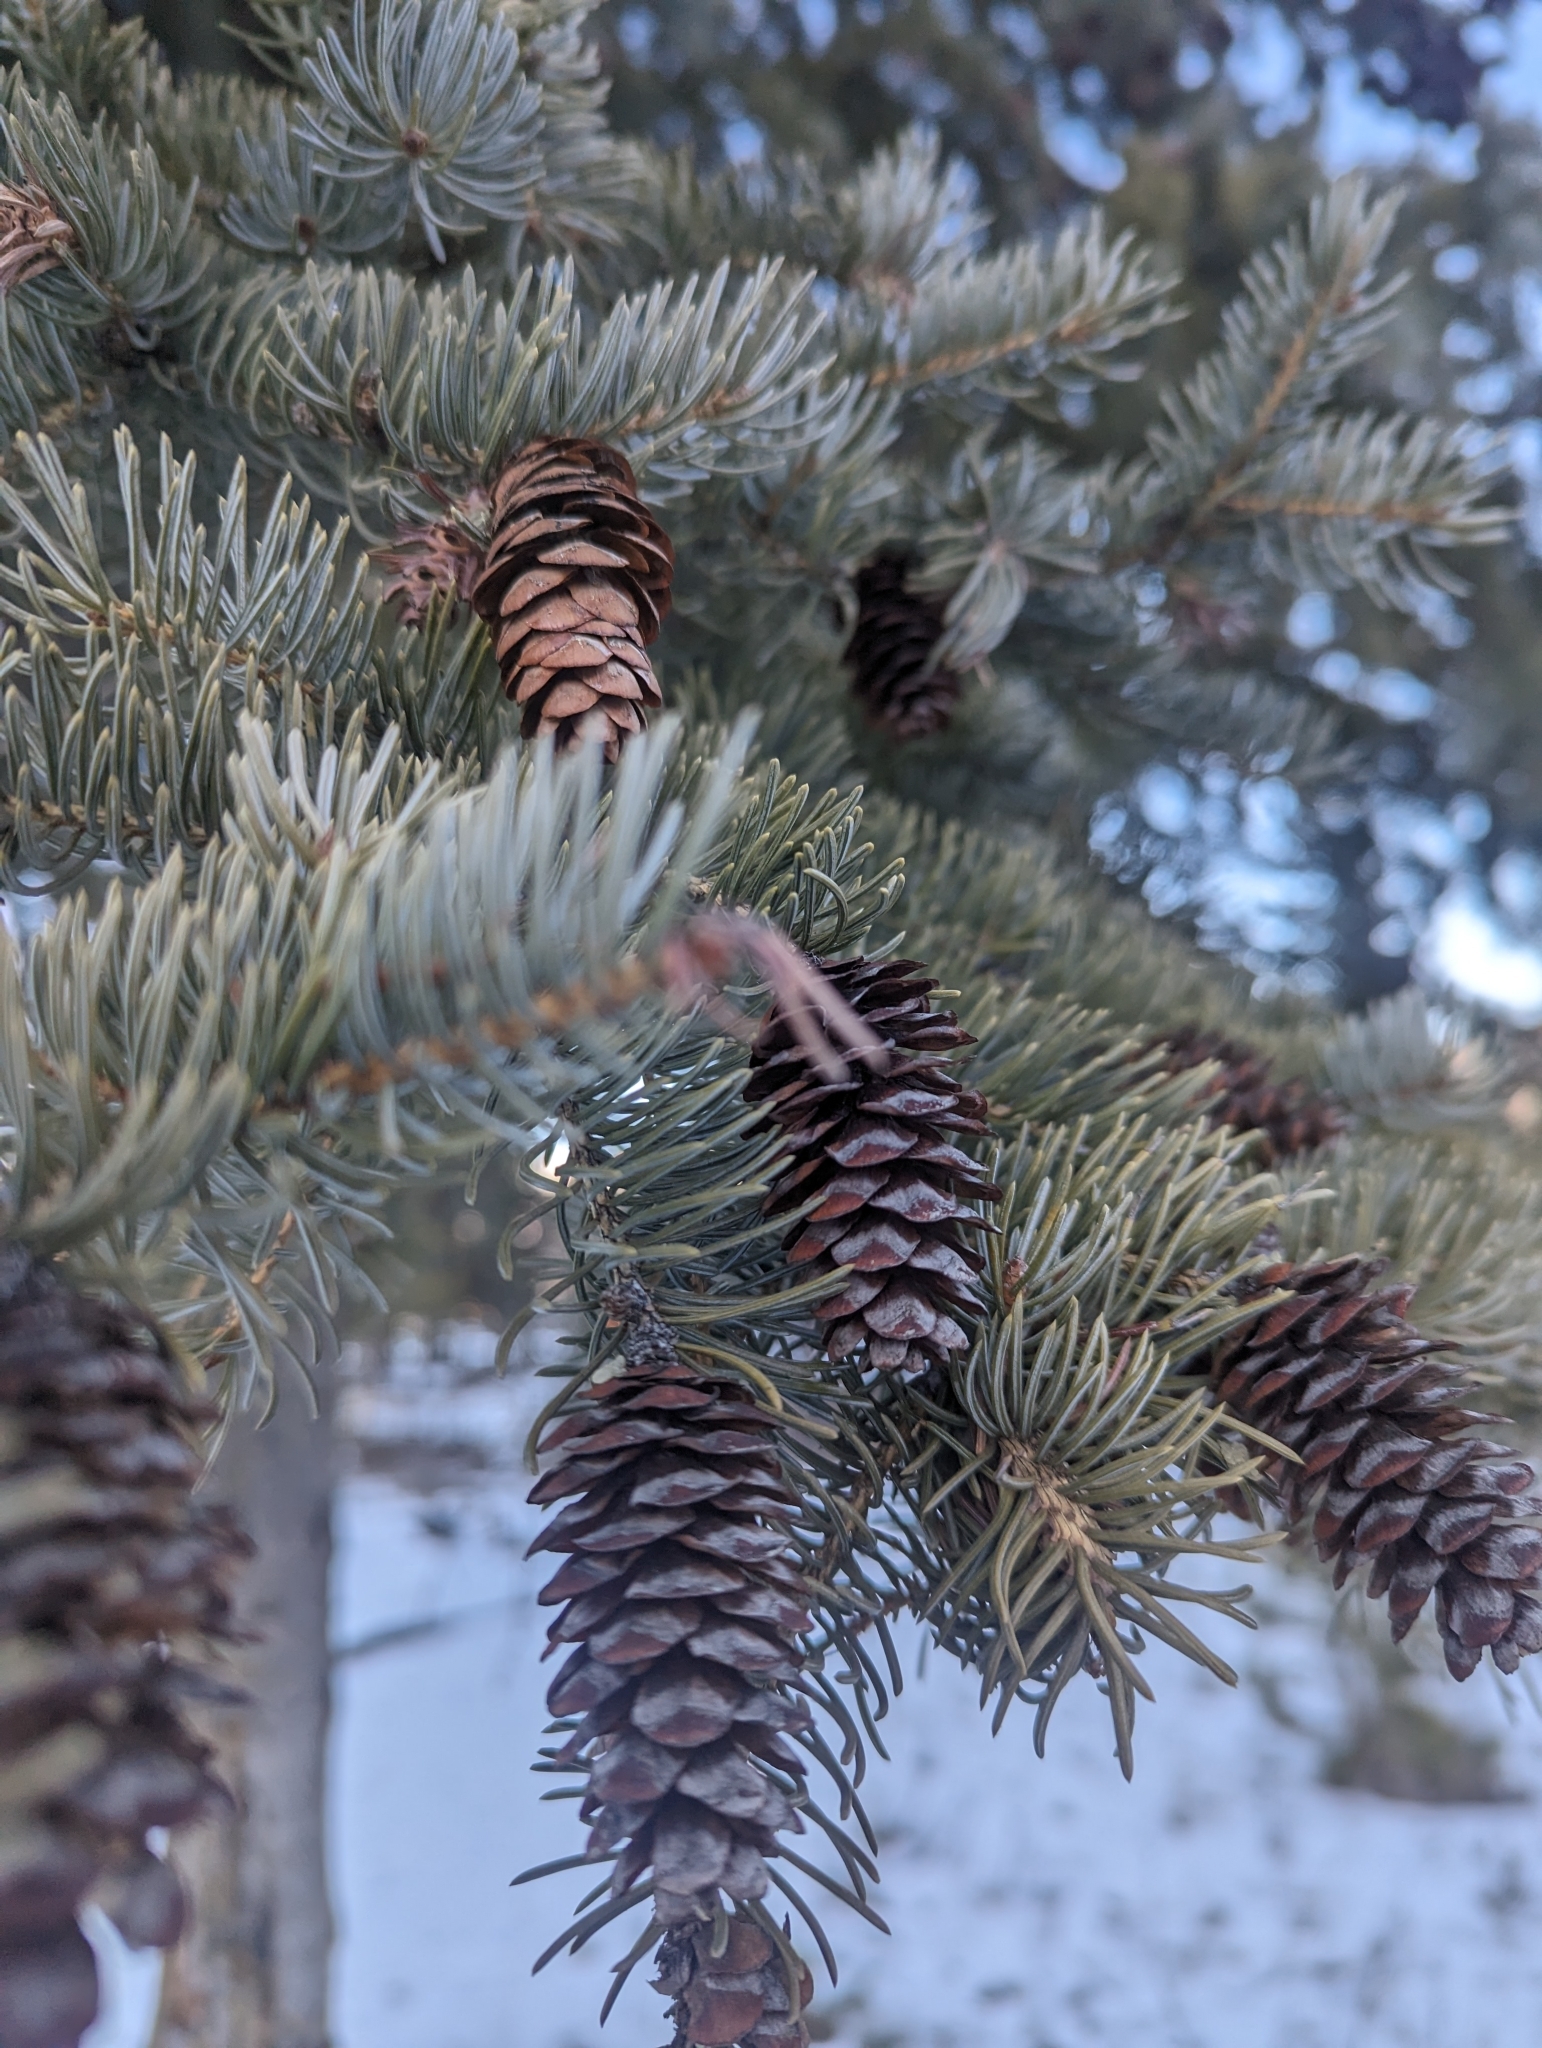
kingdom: Plantae
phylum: Tracheophyta
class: Pinopsida
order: Pinales
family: Pinaceae
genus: Picea
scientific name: Picea glauca
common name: White spruce
